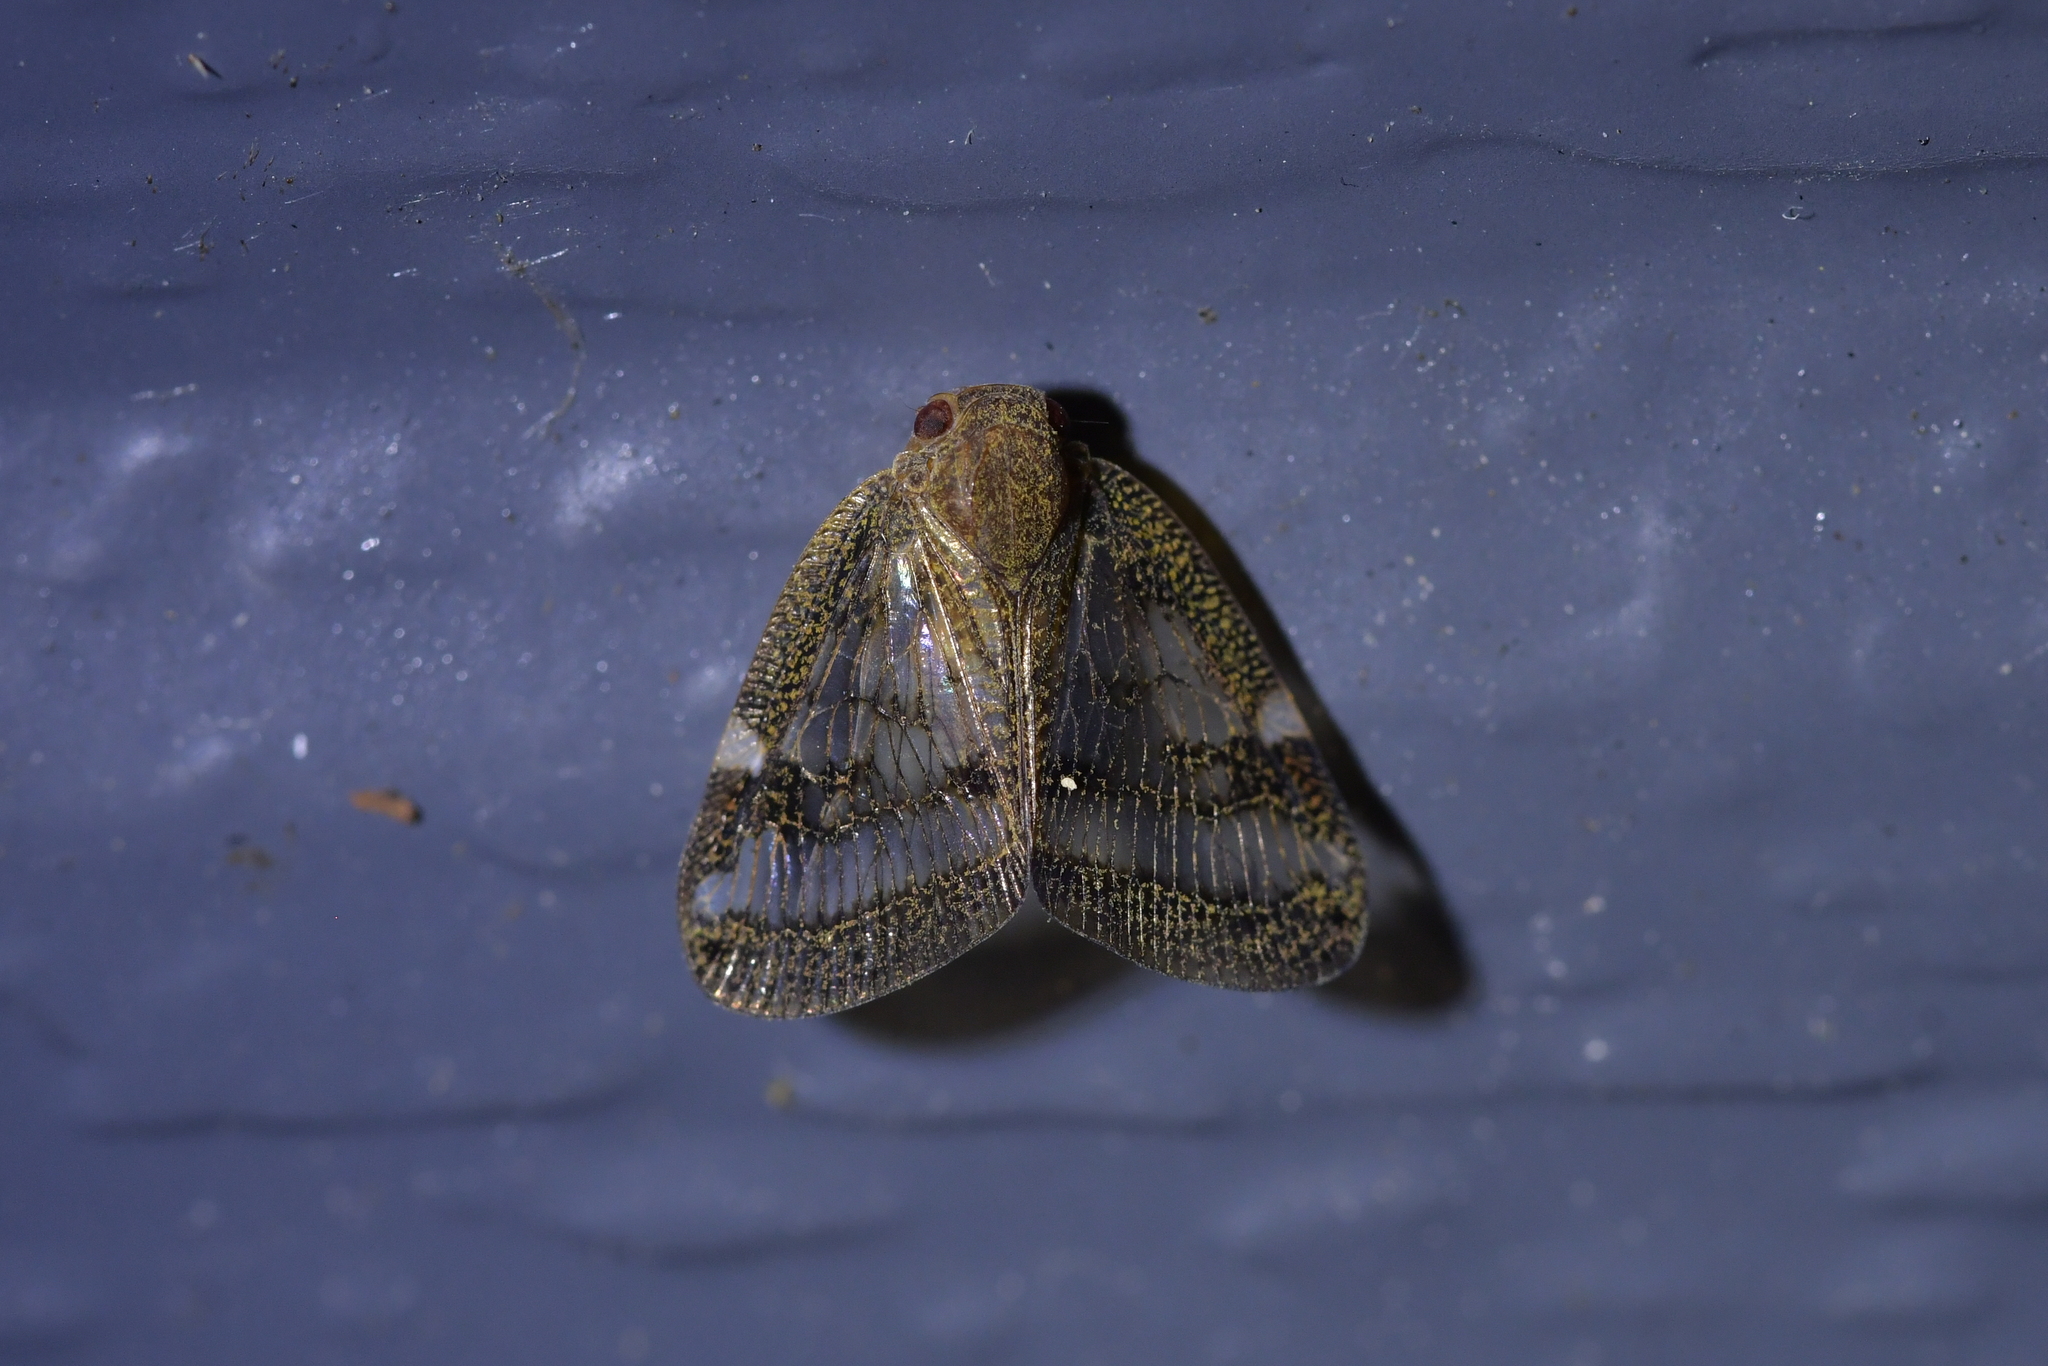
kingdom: Animalia
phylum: Arthropoda
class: Insecta
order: Hemiptera
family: Ricaniidae
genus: Scolypopa
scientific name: Scolypopa australis
